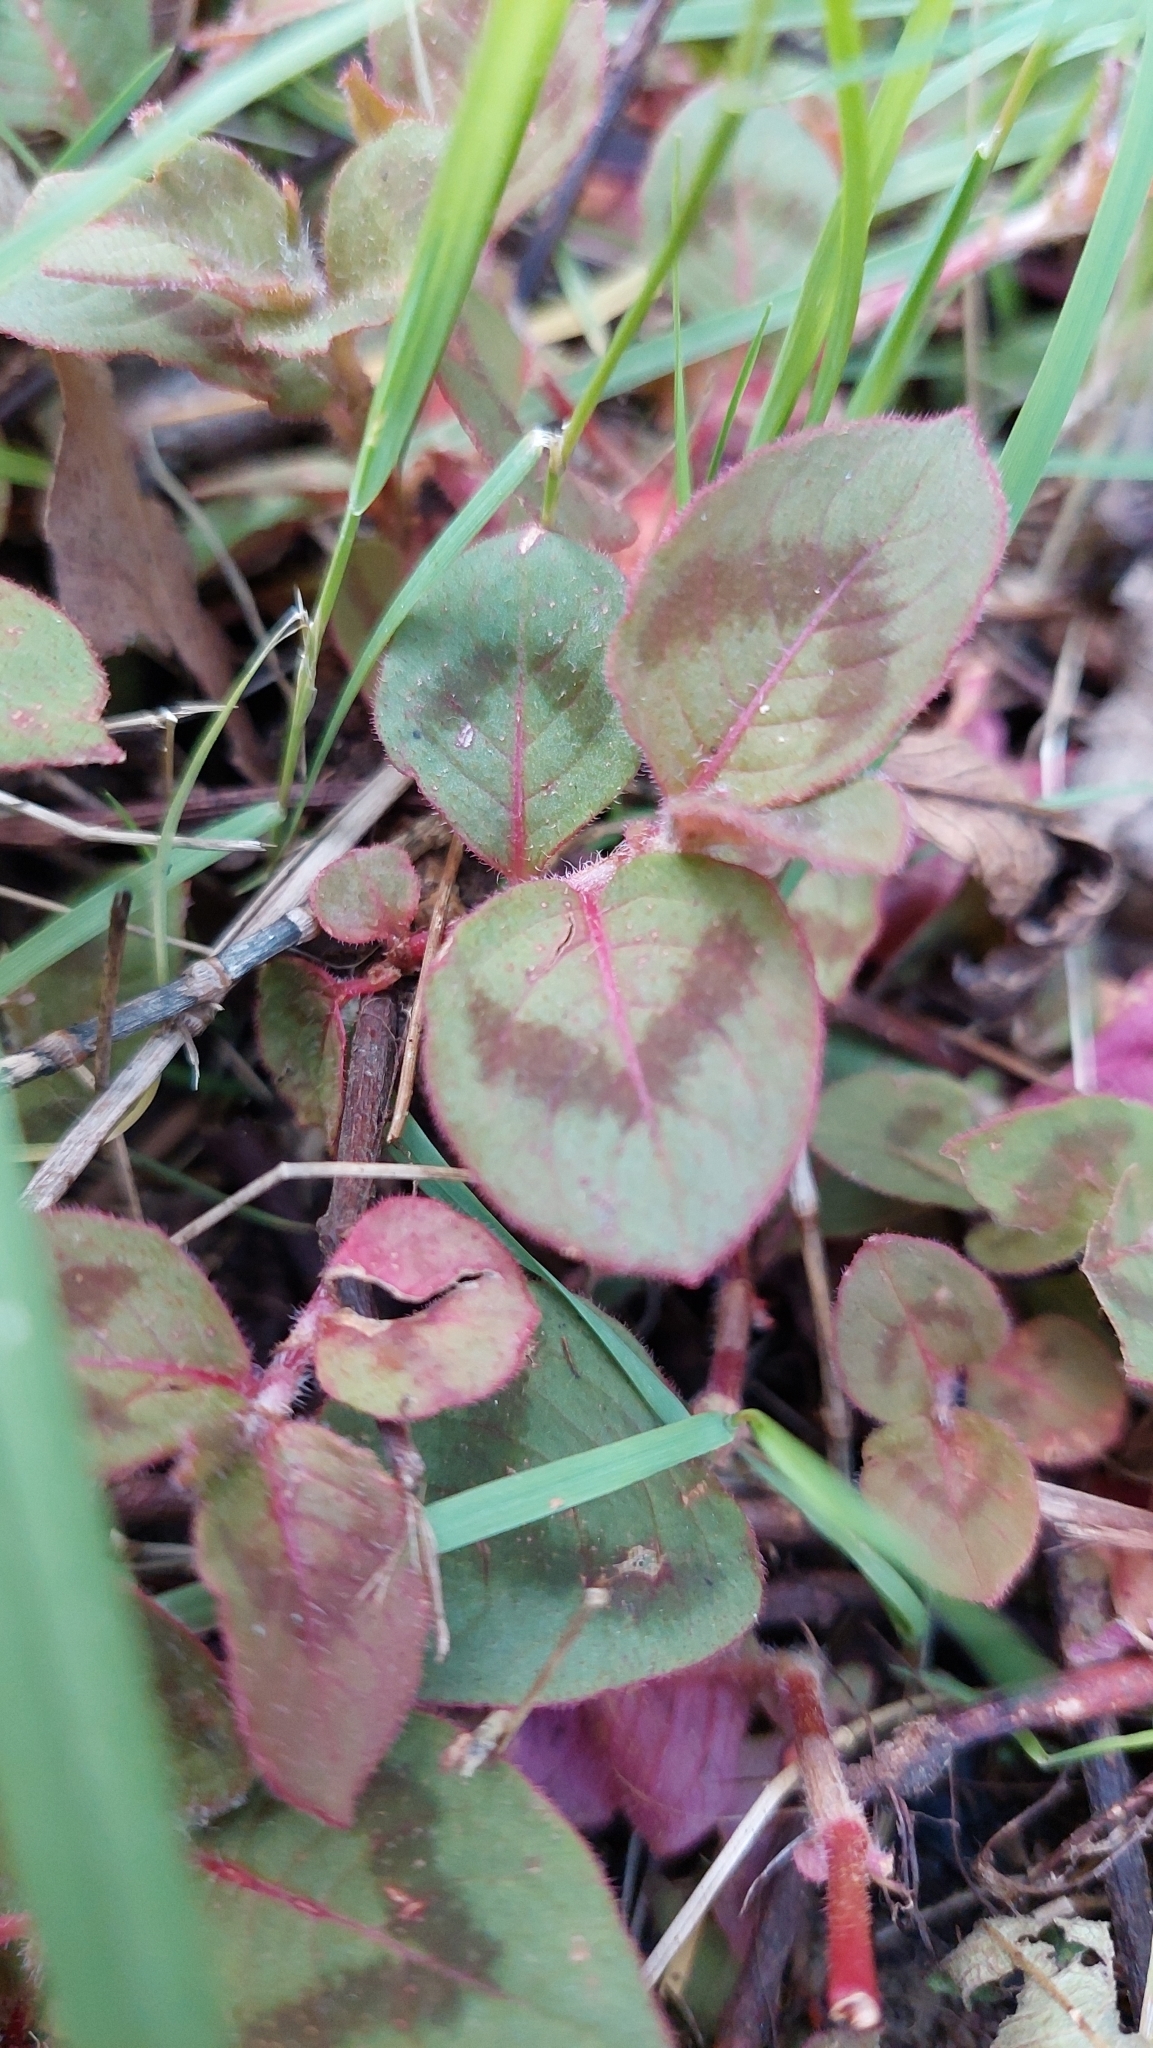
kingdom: Plantae
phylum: Tracheophyta
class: Magnoliopsida
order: Caryophyllales
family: Polygonaceae
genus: Persicaria
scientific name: Persicaria capitata
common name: Pinkhead smartweed
